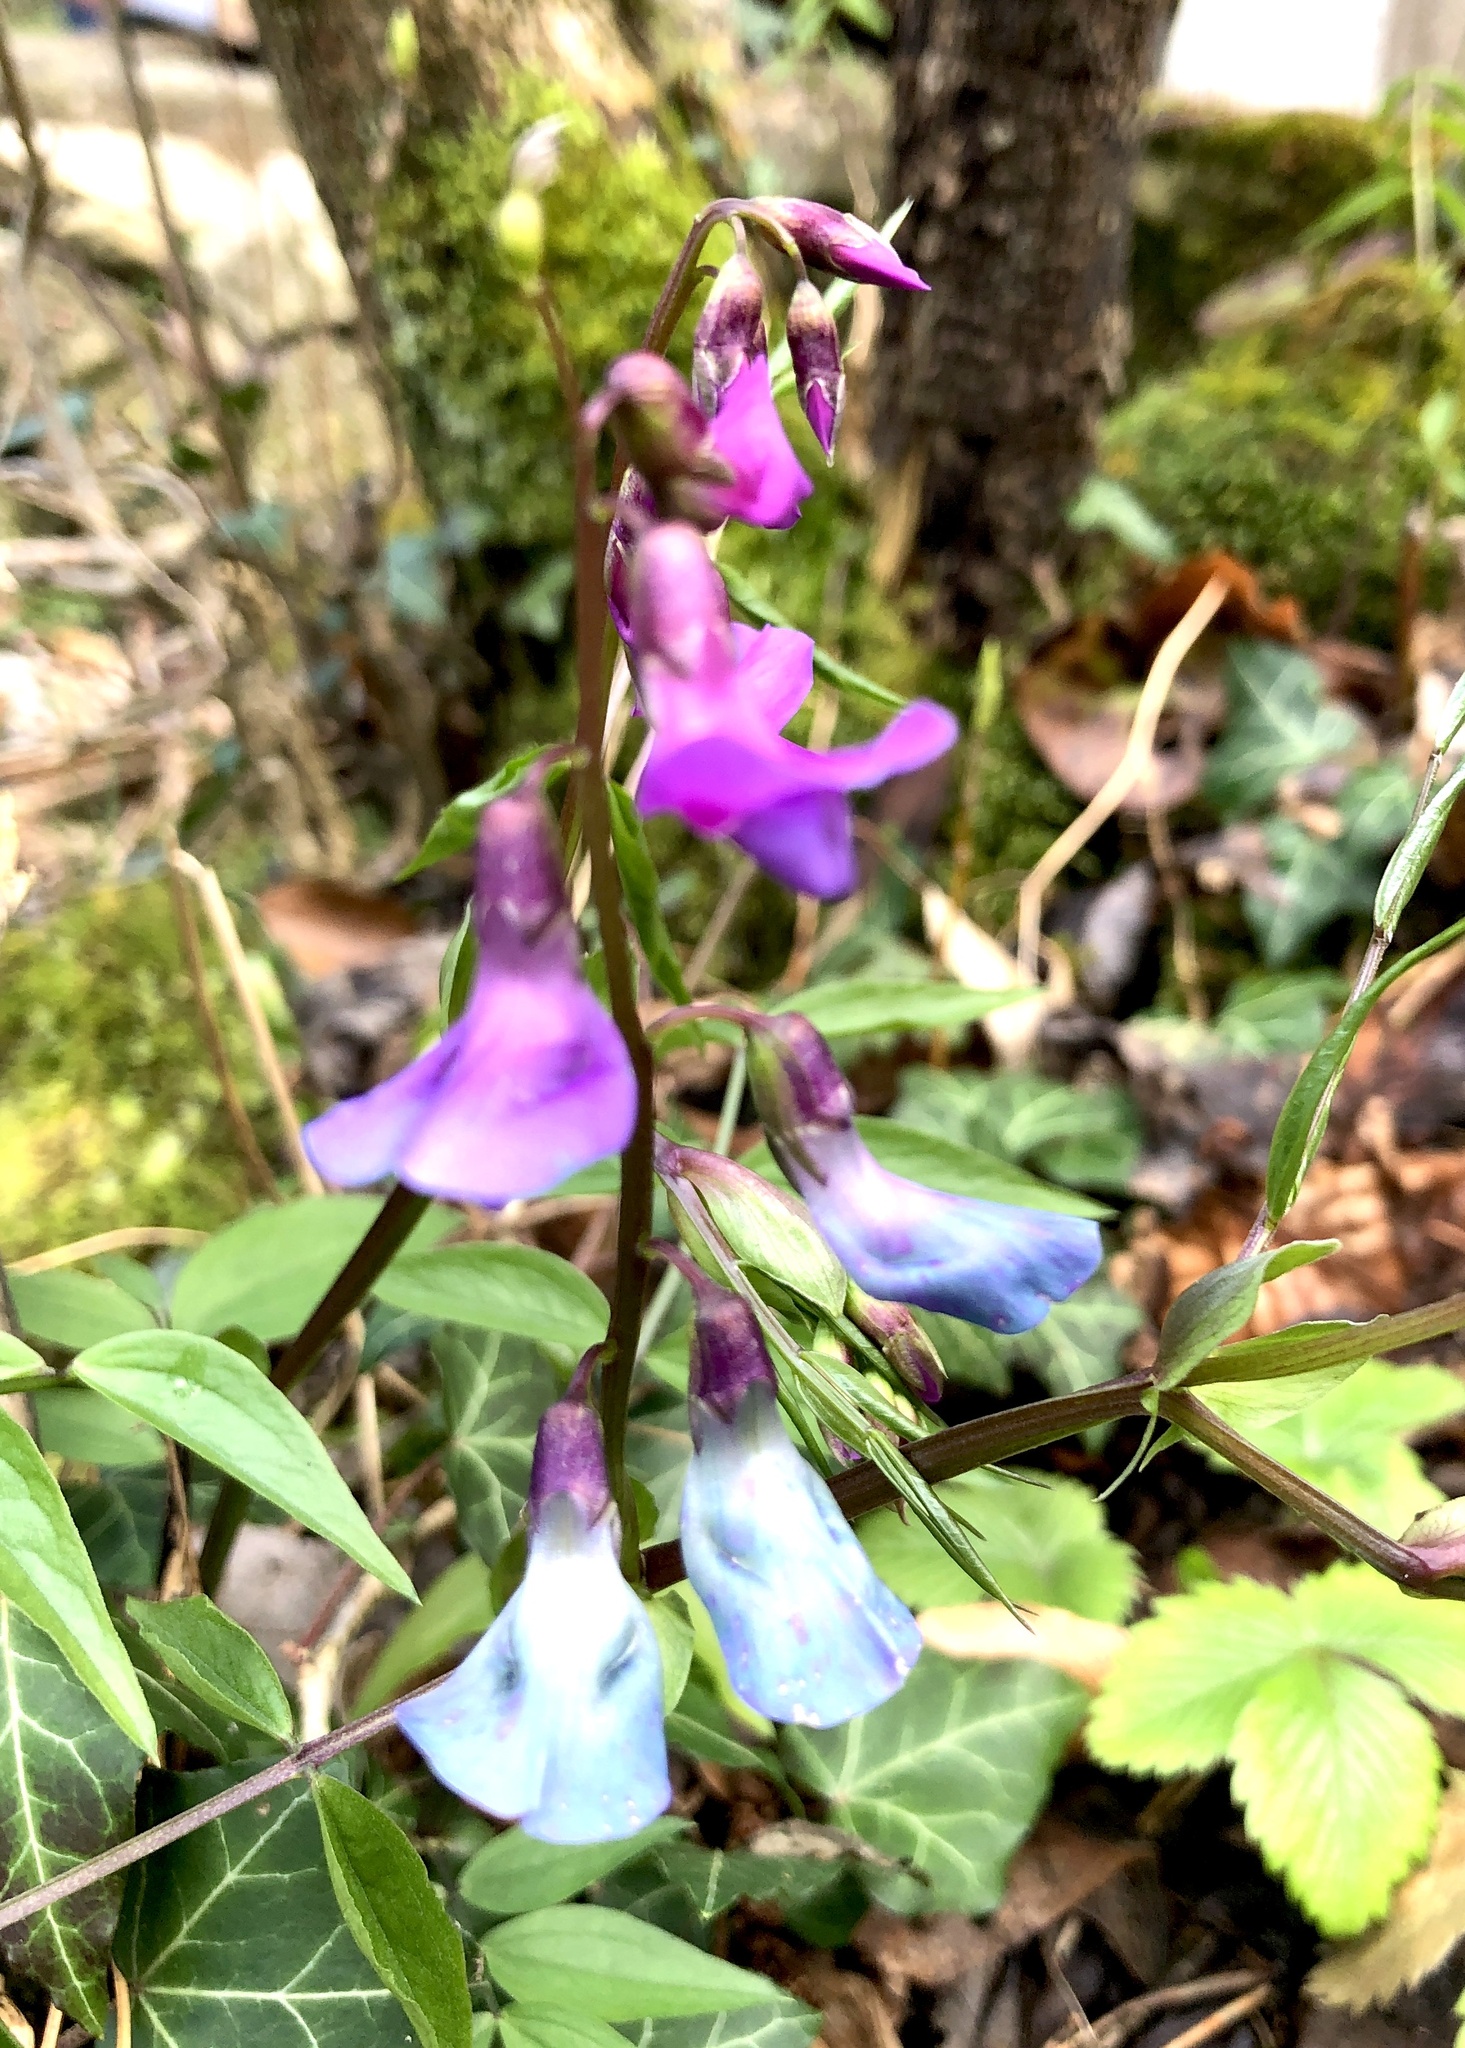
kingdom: Plantae
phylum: Tracheophyta
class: Magnoliopsida
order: Fabales
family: Fabaceae
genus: Lathyrus
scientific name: Lathyrus vernus
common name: Spring pea
